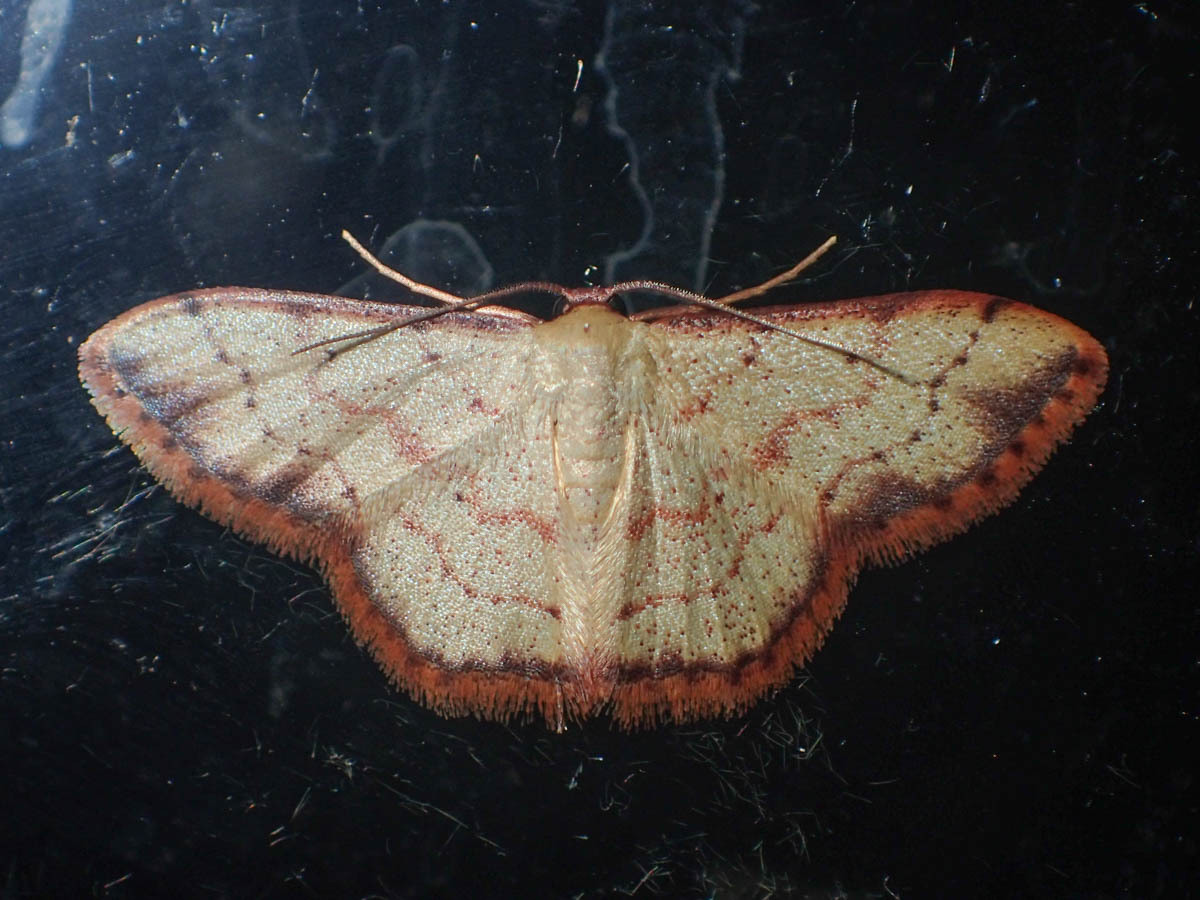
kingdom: Animalia
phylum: Arthropoda
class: Insecta
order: Lepidoptera
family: Geometridae
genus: Idaea
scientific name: Idaea craspedota
